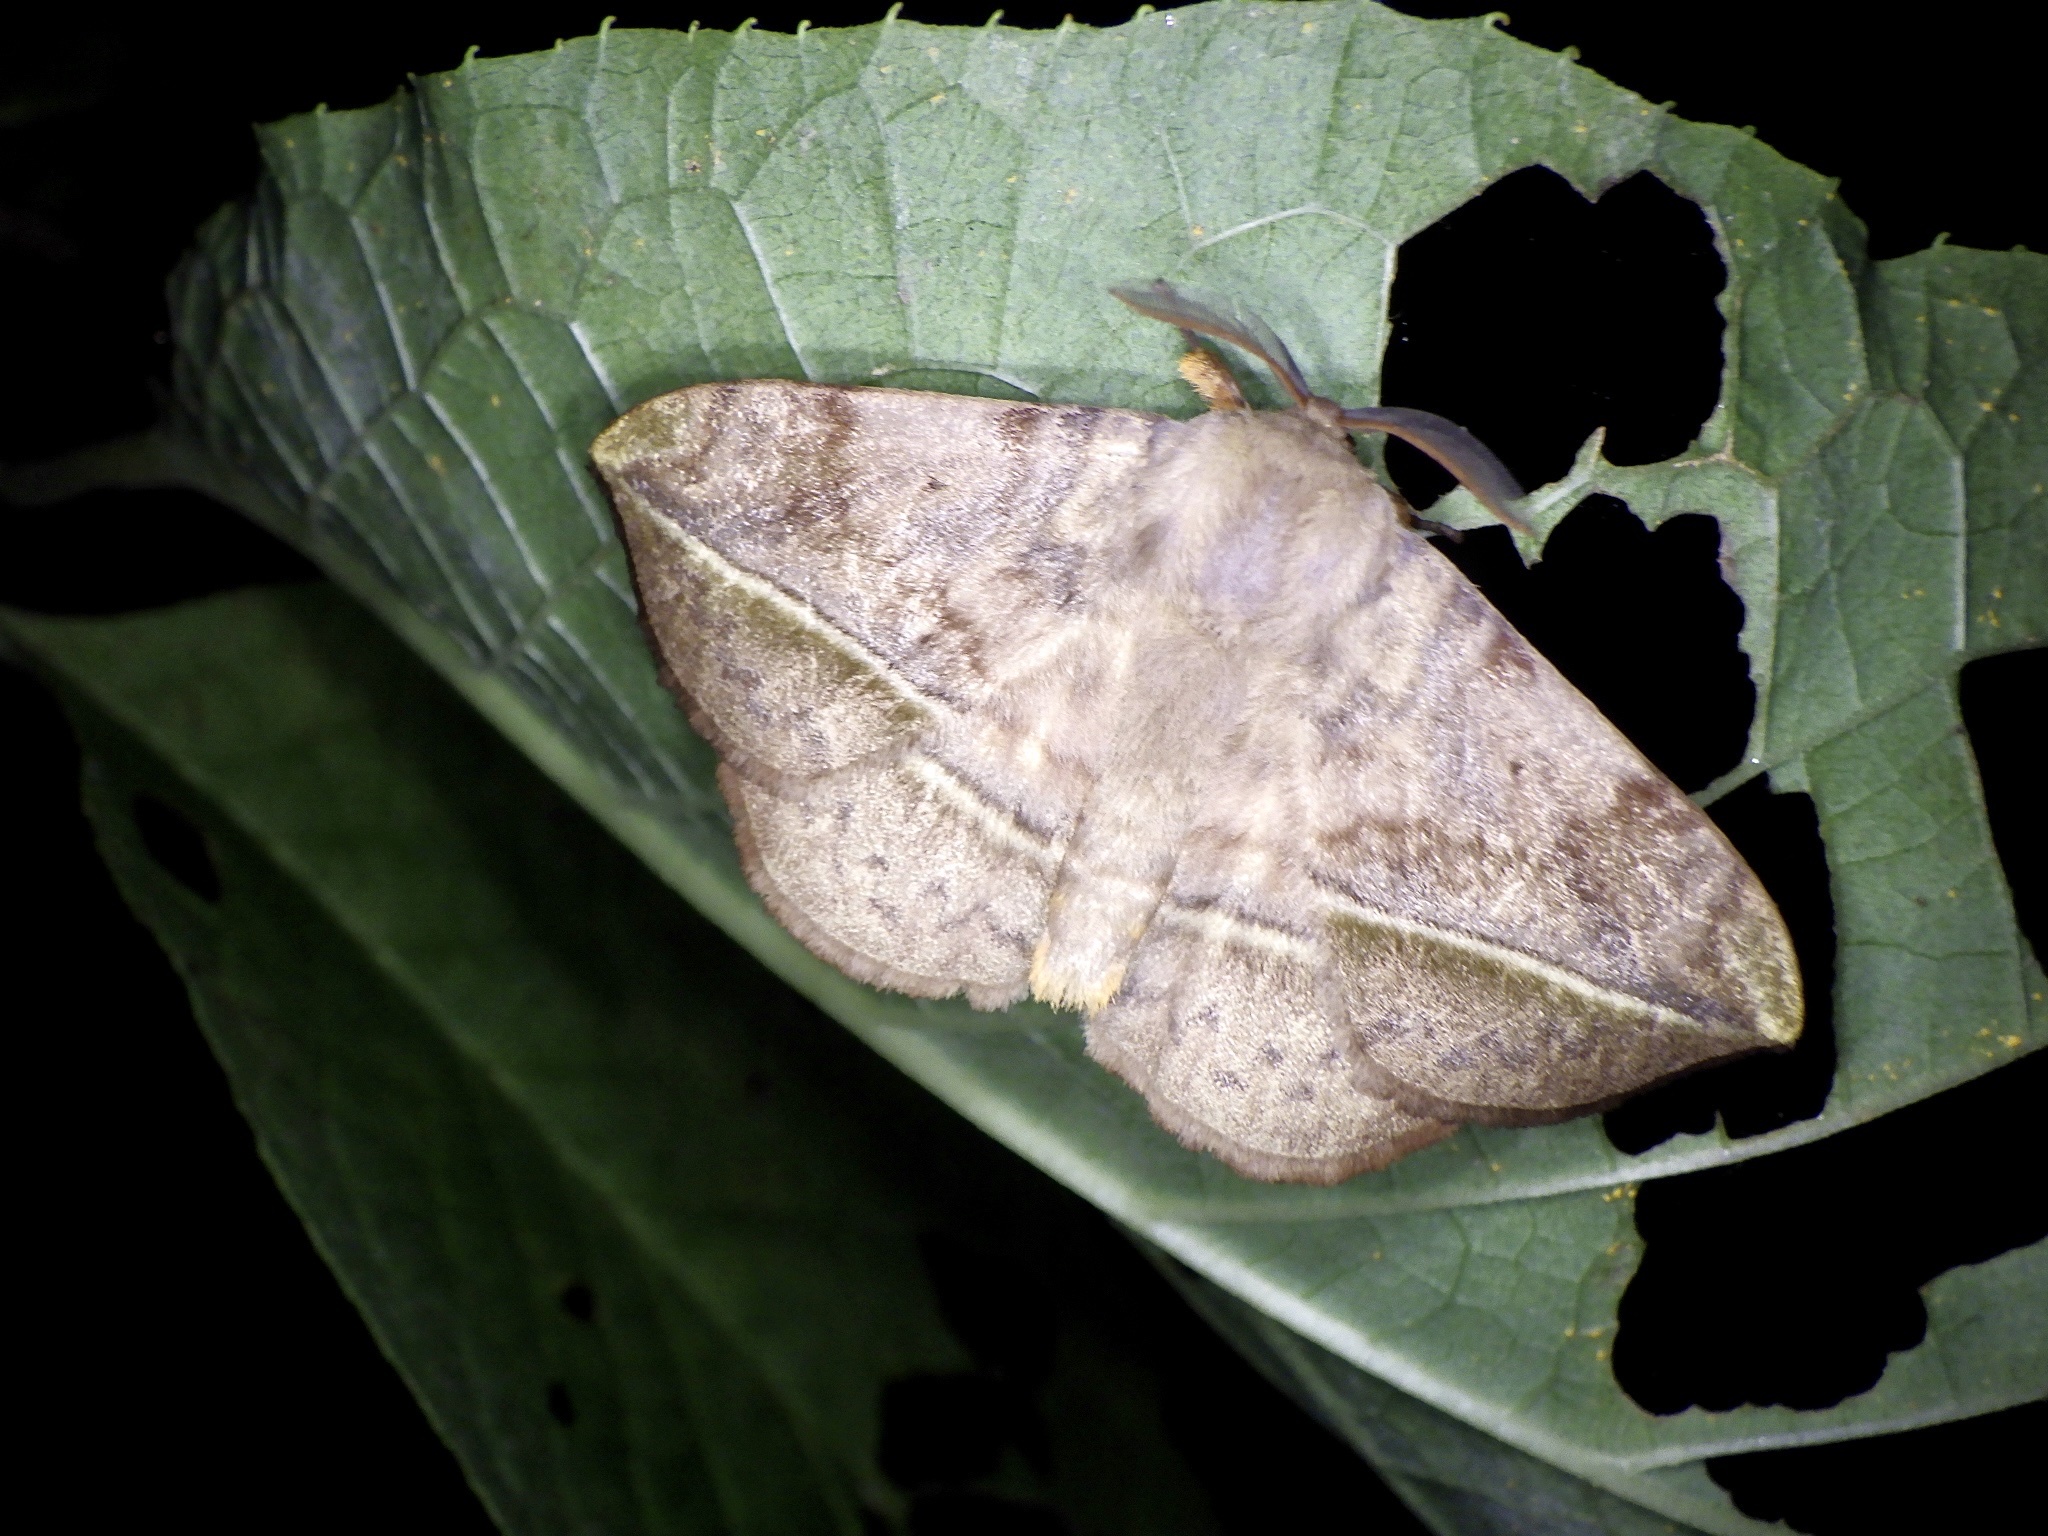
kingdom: Animalia
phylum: Arthropoda
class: Insecta
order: Lepidoptera
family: Eupterotidae
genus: Apha
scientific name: Apha aequalis
